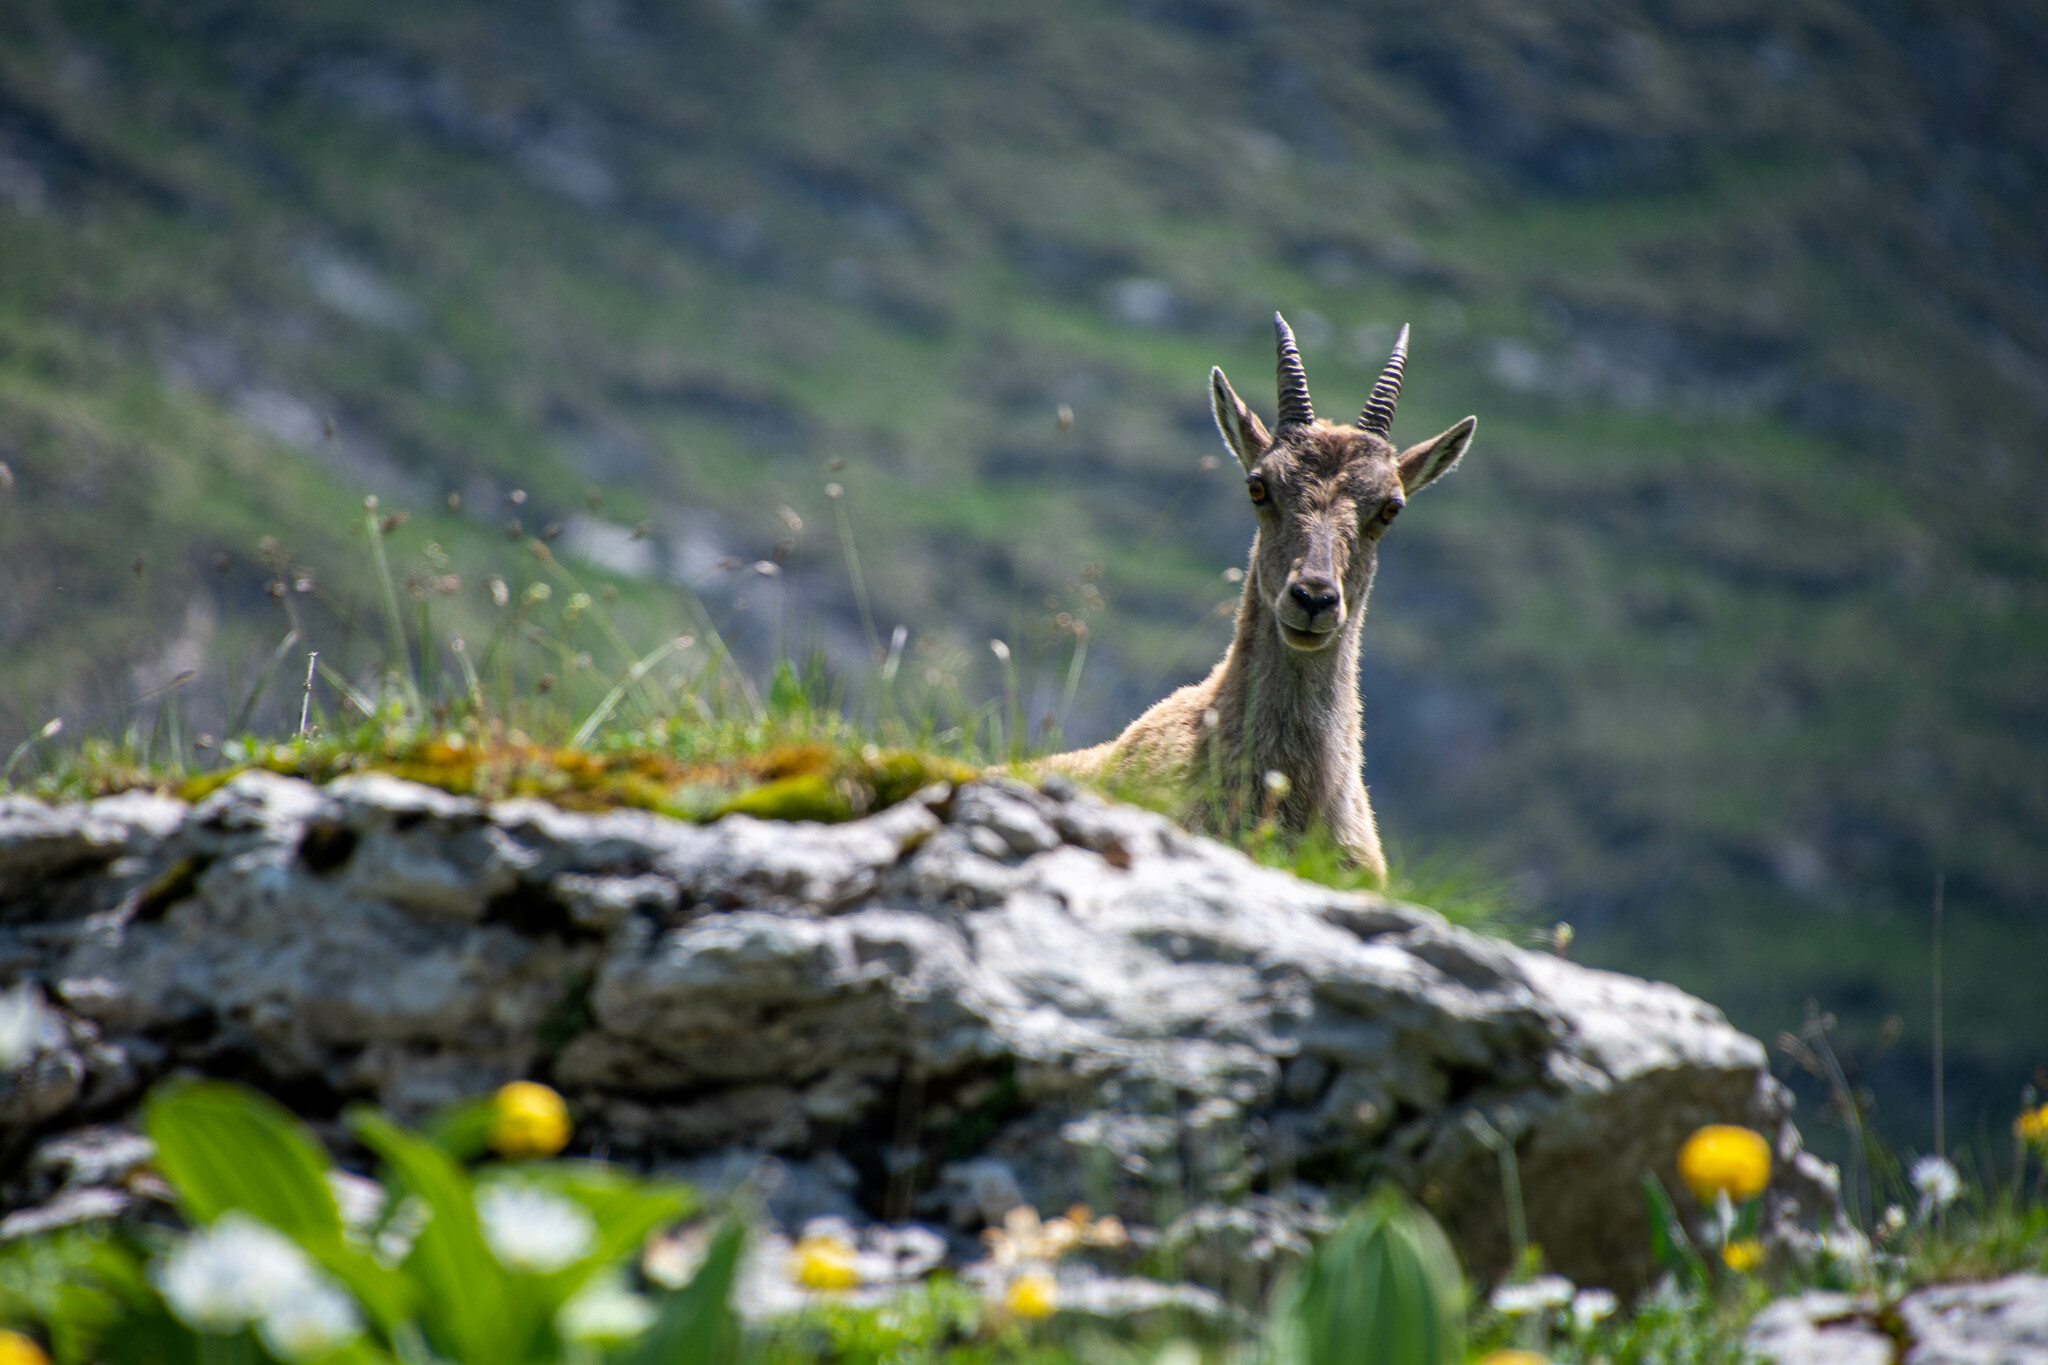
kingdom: Animalia
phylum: Chordata
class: Mammalia
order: Artiodactyla
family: Bovidae
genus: Capra
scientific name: Capra ibex
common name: Alpine ibex
